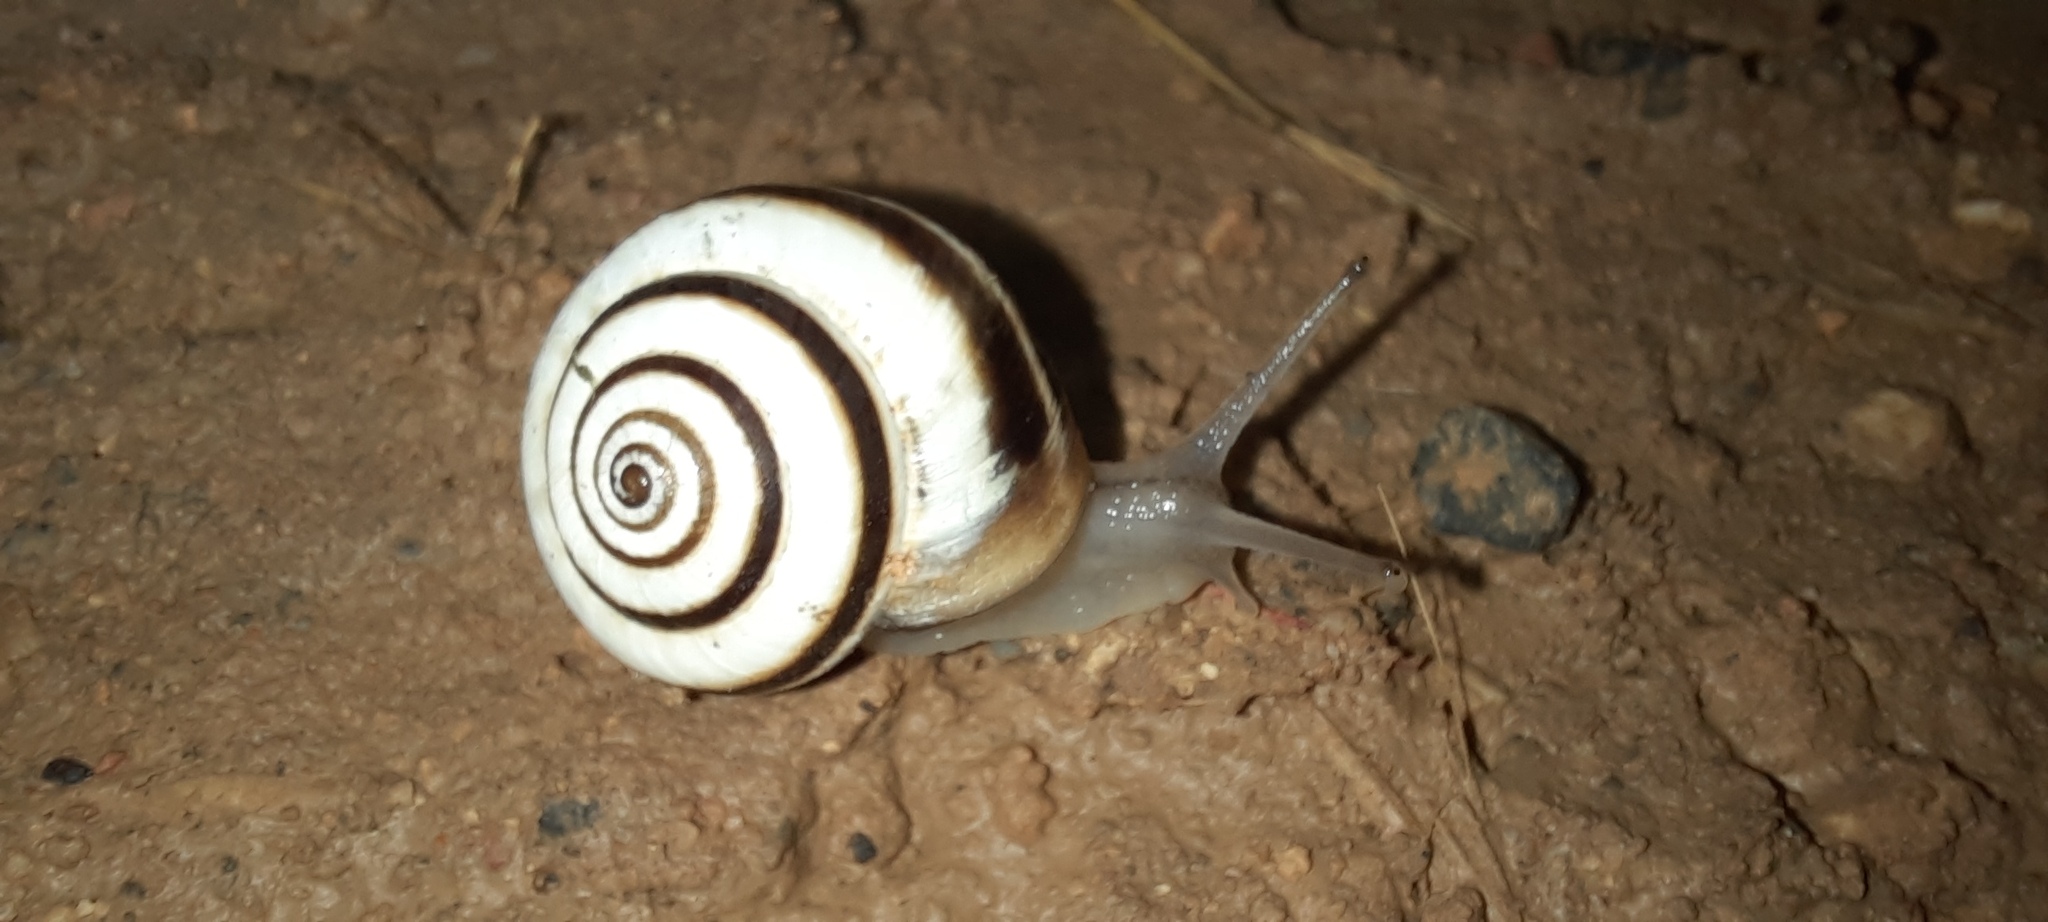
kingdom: Animalia
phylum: Mollusca
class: Gastropoda
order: Stylommatophora
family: Geomitridae
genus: Cernuella
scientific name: Cernuella virgata
